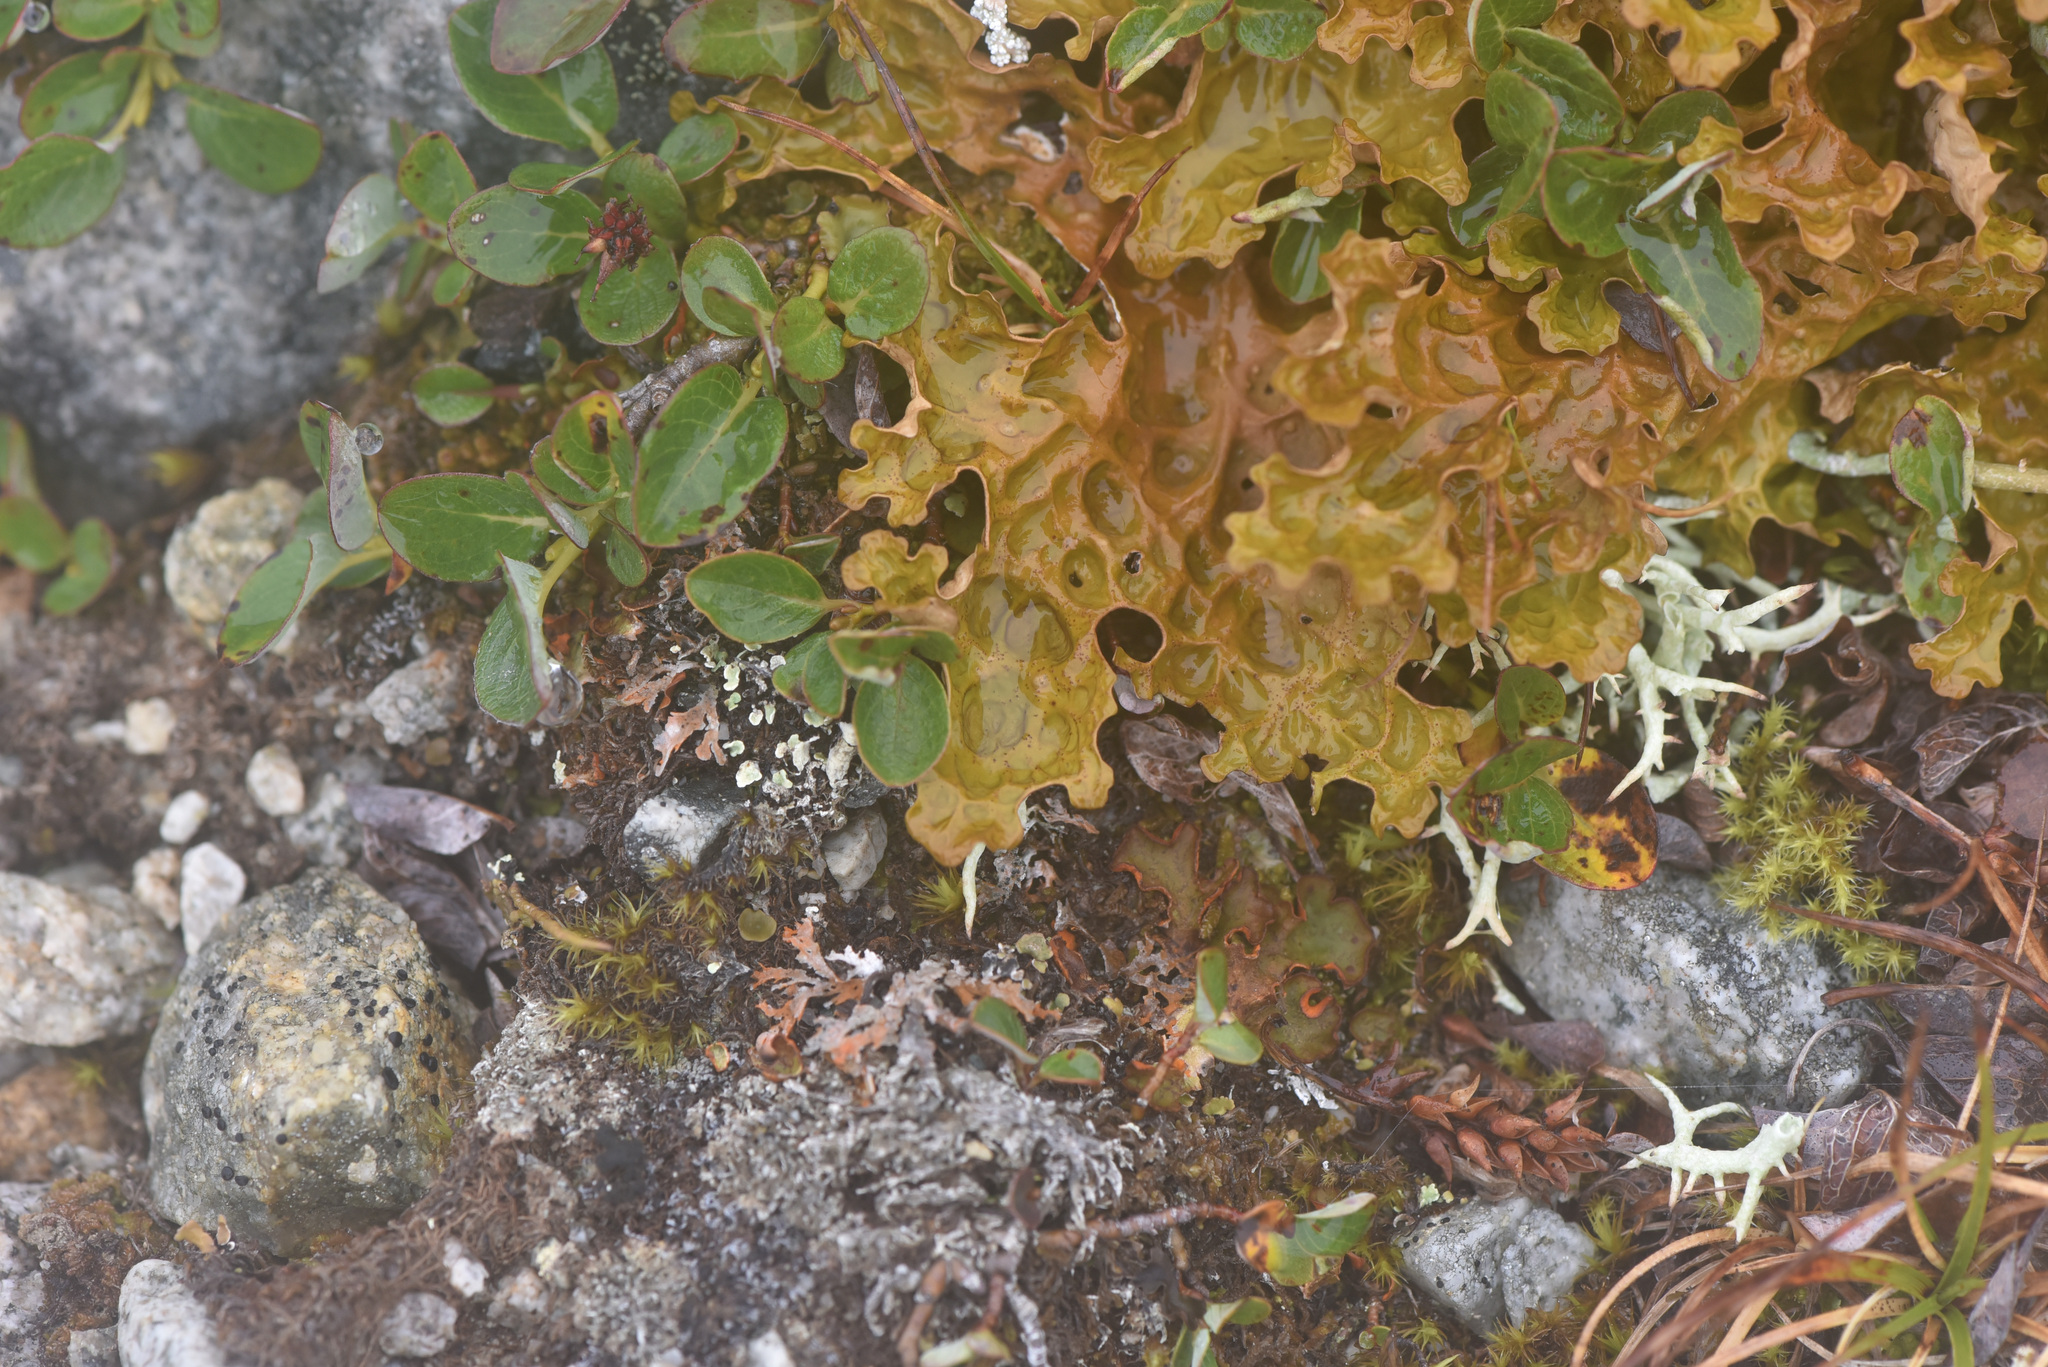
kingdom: Fungi
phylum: Ascomycota
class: Lecanoromycetes
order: Peltigerales
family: Lobariaceae
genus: Lobaria
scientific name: Lobaria linita
